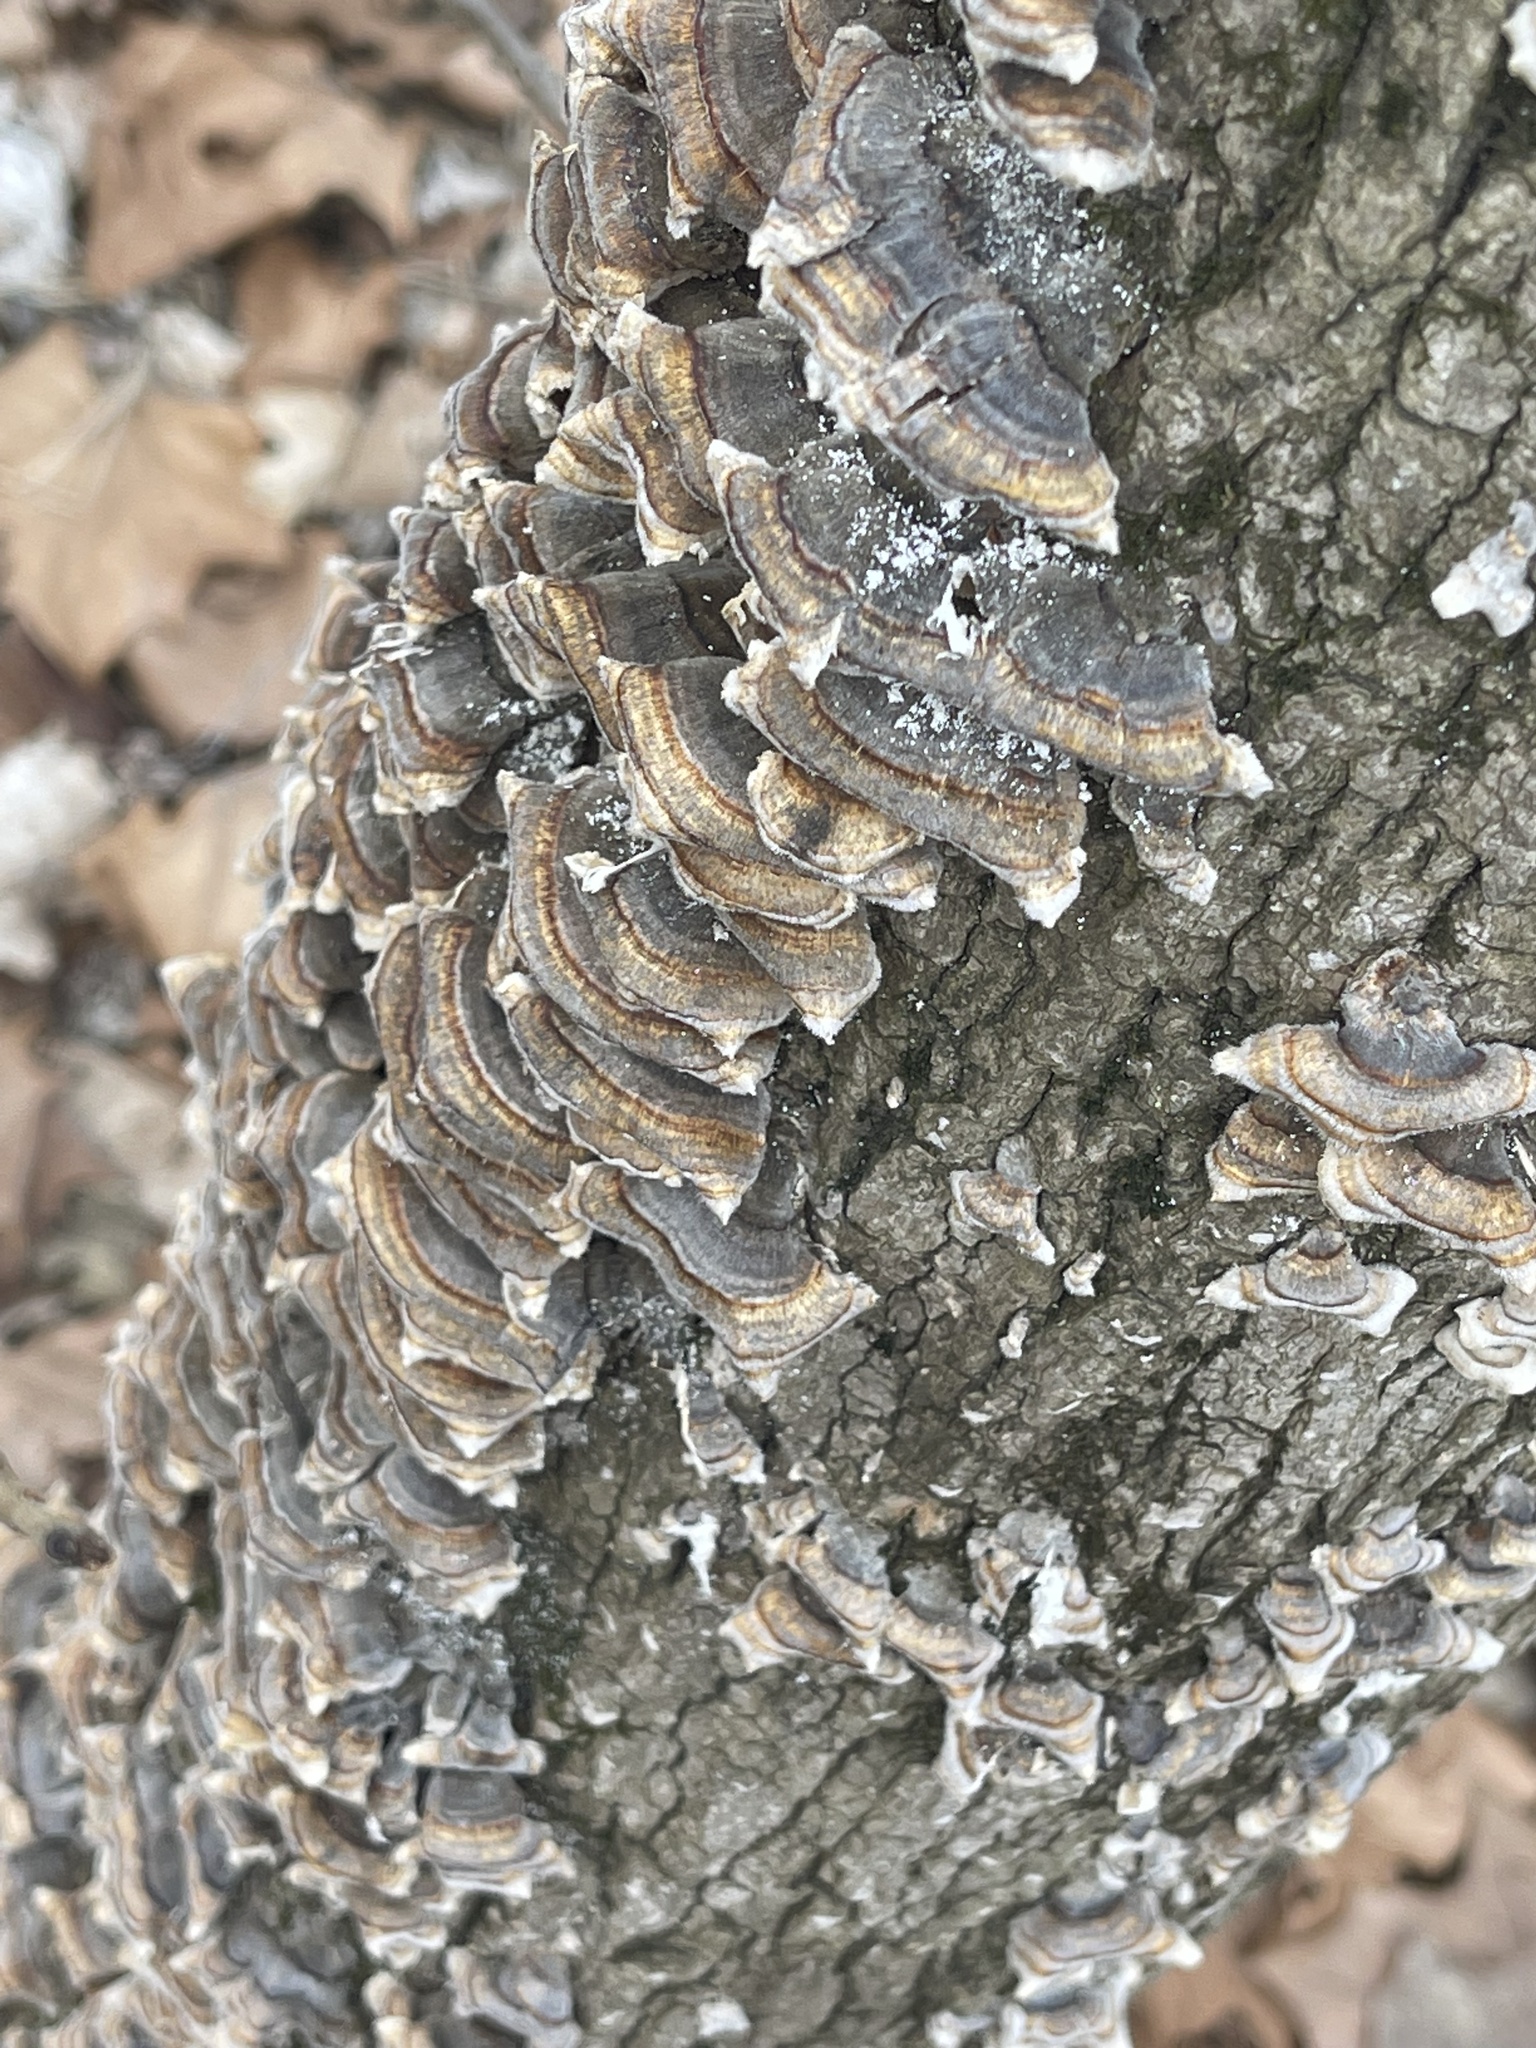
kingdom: Fungi
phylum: Basidiomycota
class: Agaricomycetes
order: Polyporales
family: Polyporaceae
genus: Trametes
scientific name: Trametes versicolor
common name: Turkeytail
